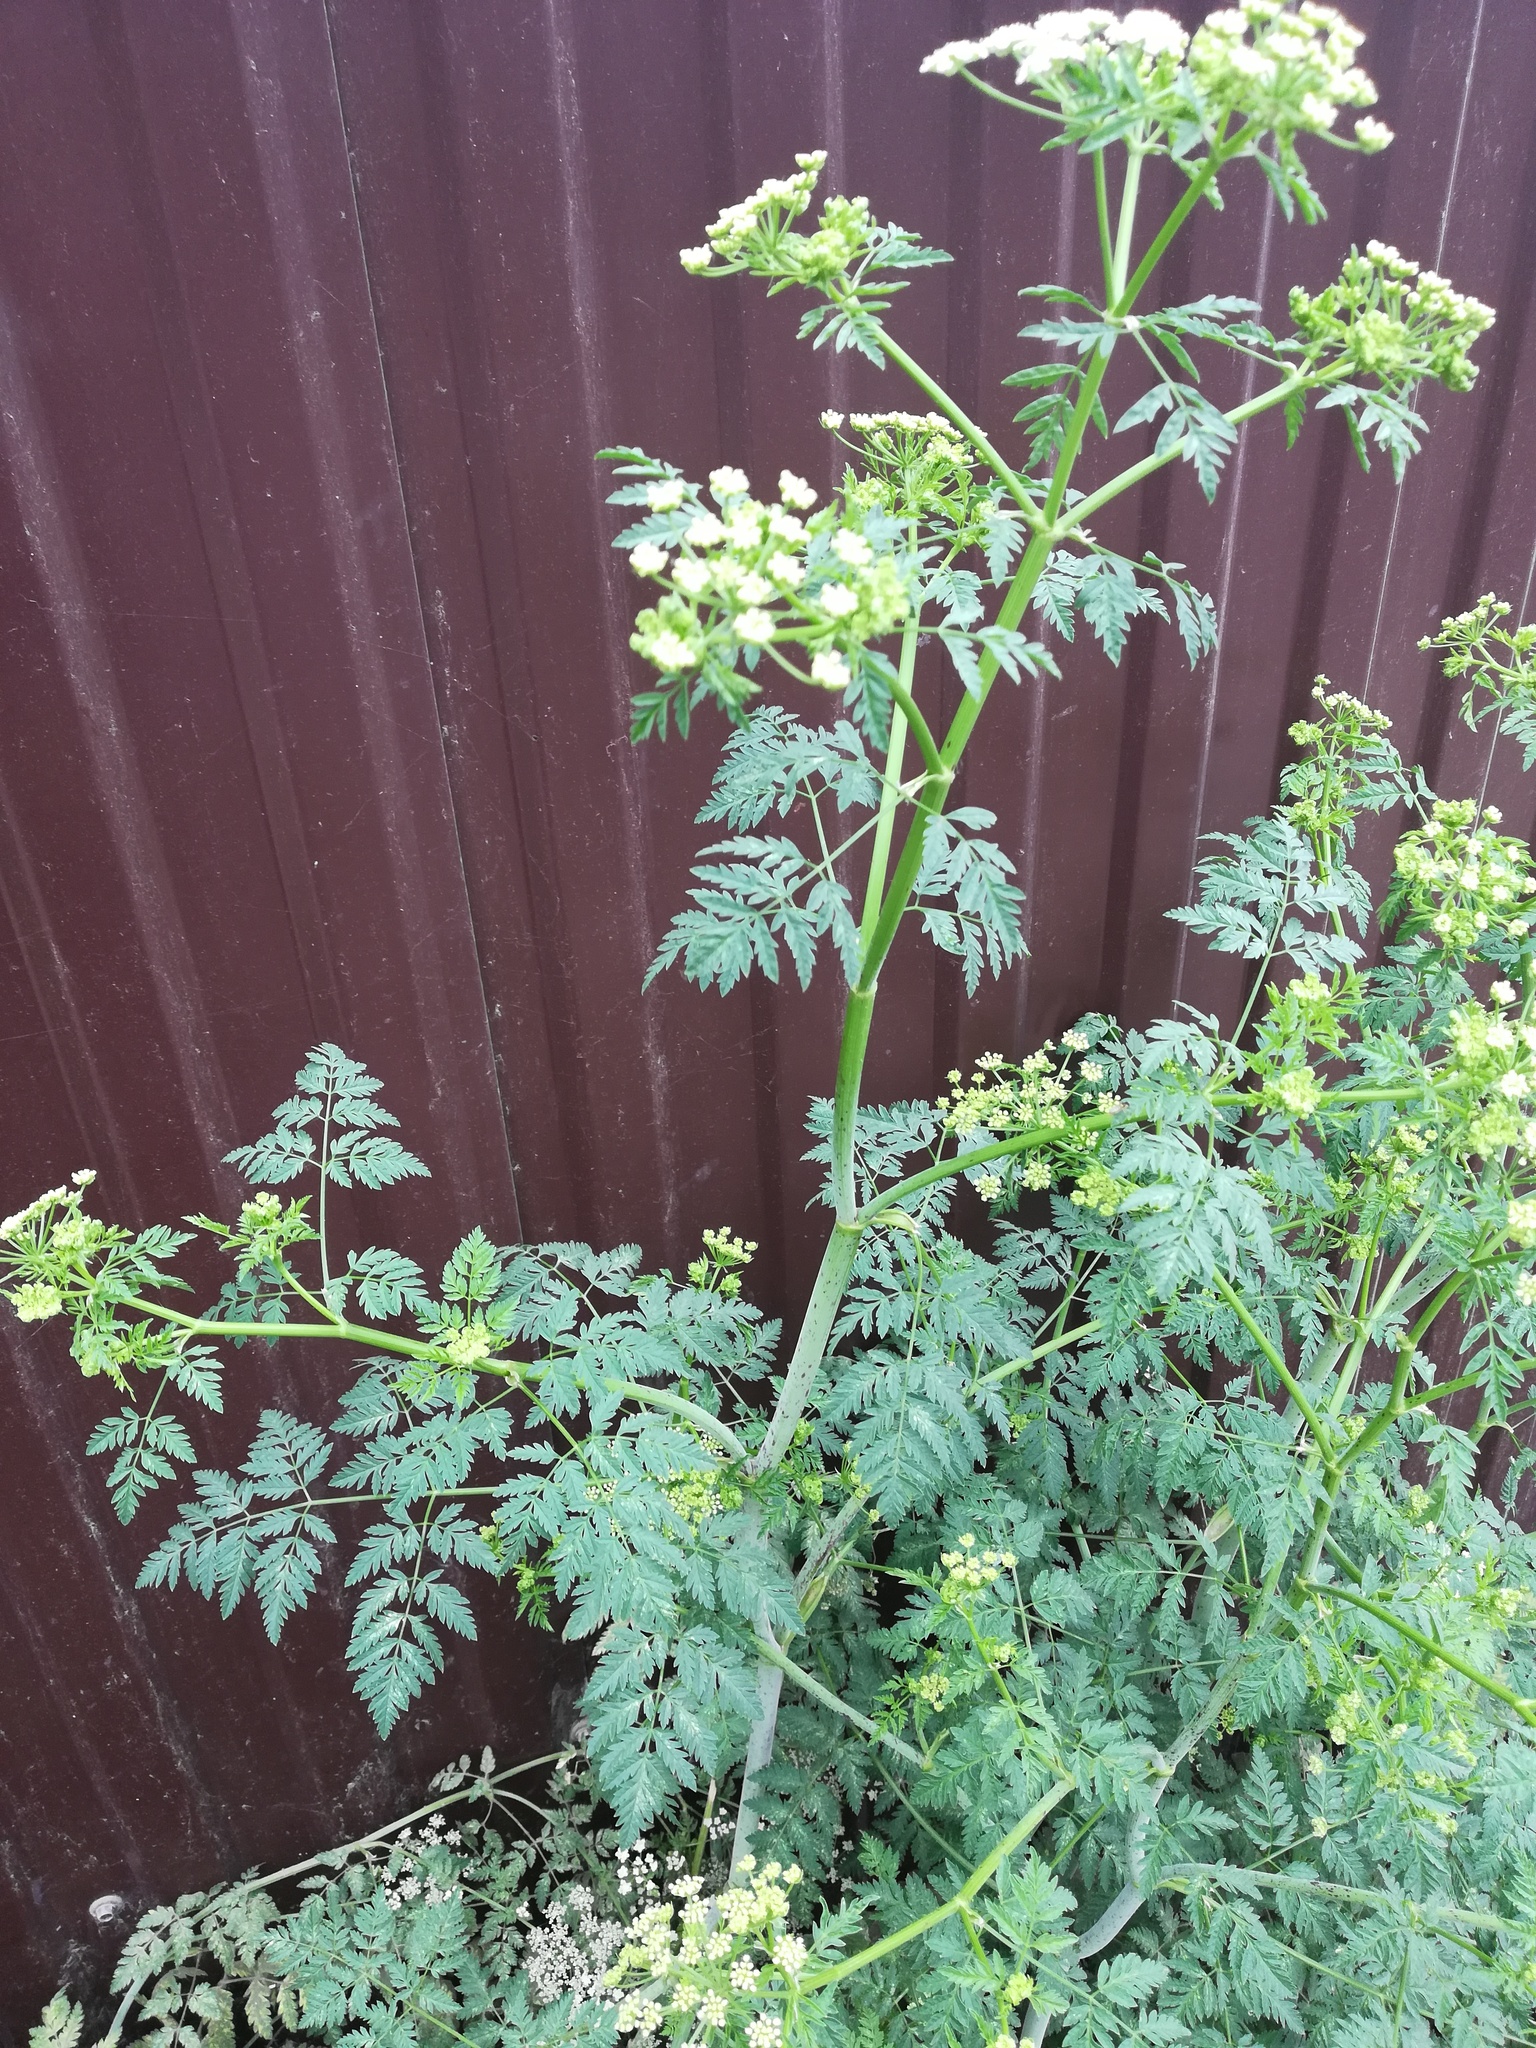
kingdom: Plantae
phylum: Tracheophyta
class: Magnoliopsida
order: Apiales
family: Apiaceae
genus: Conium
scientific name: Conium maculatum
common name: Hemlock
